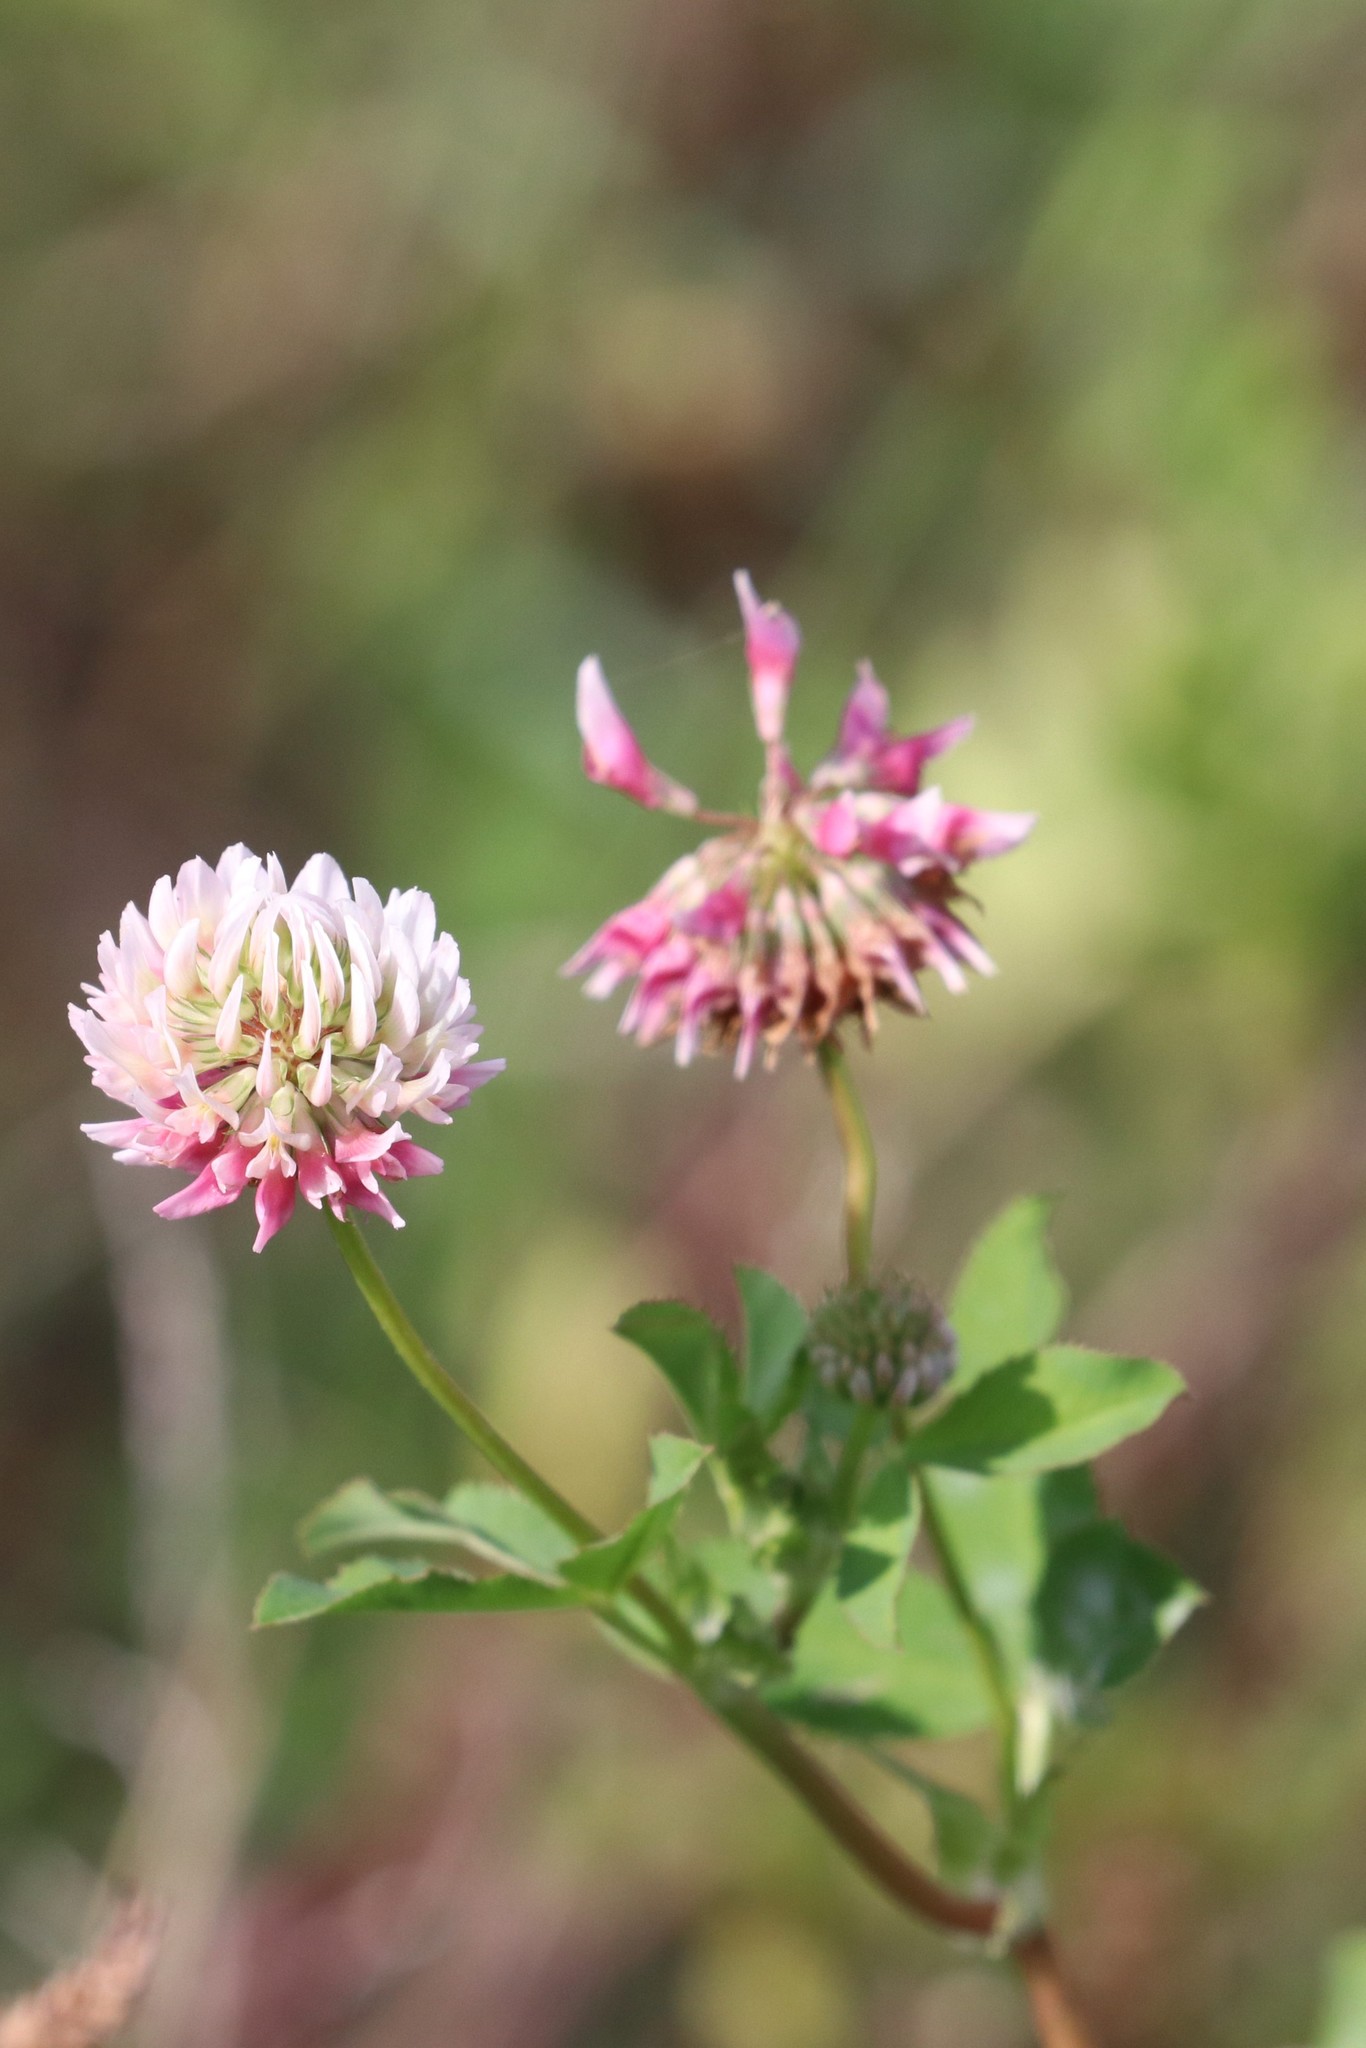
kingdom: Plantae
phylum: Tracheophyta
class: Magnoliopsida
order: Fabales
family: Fabaceae
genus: Trifolium
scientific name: Trifolium hybridum
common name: Alsike clover
